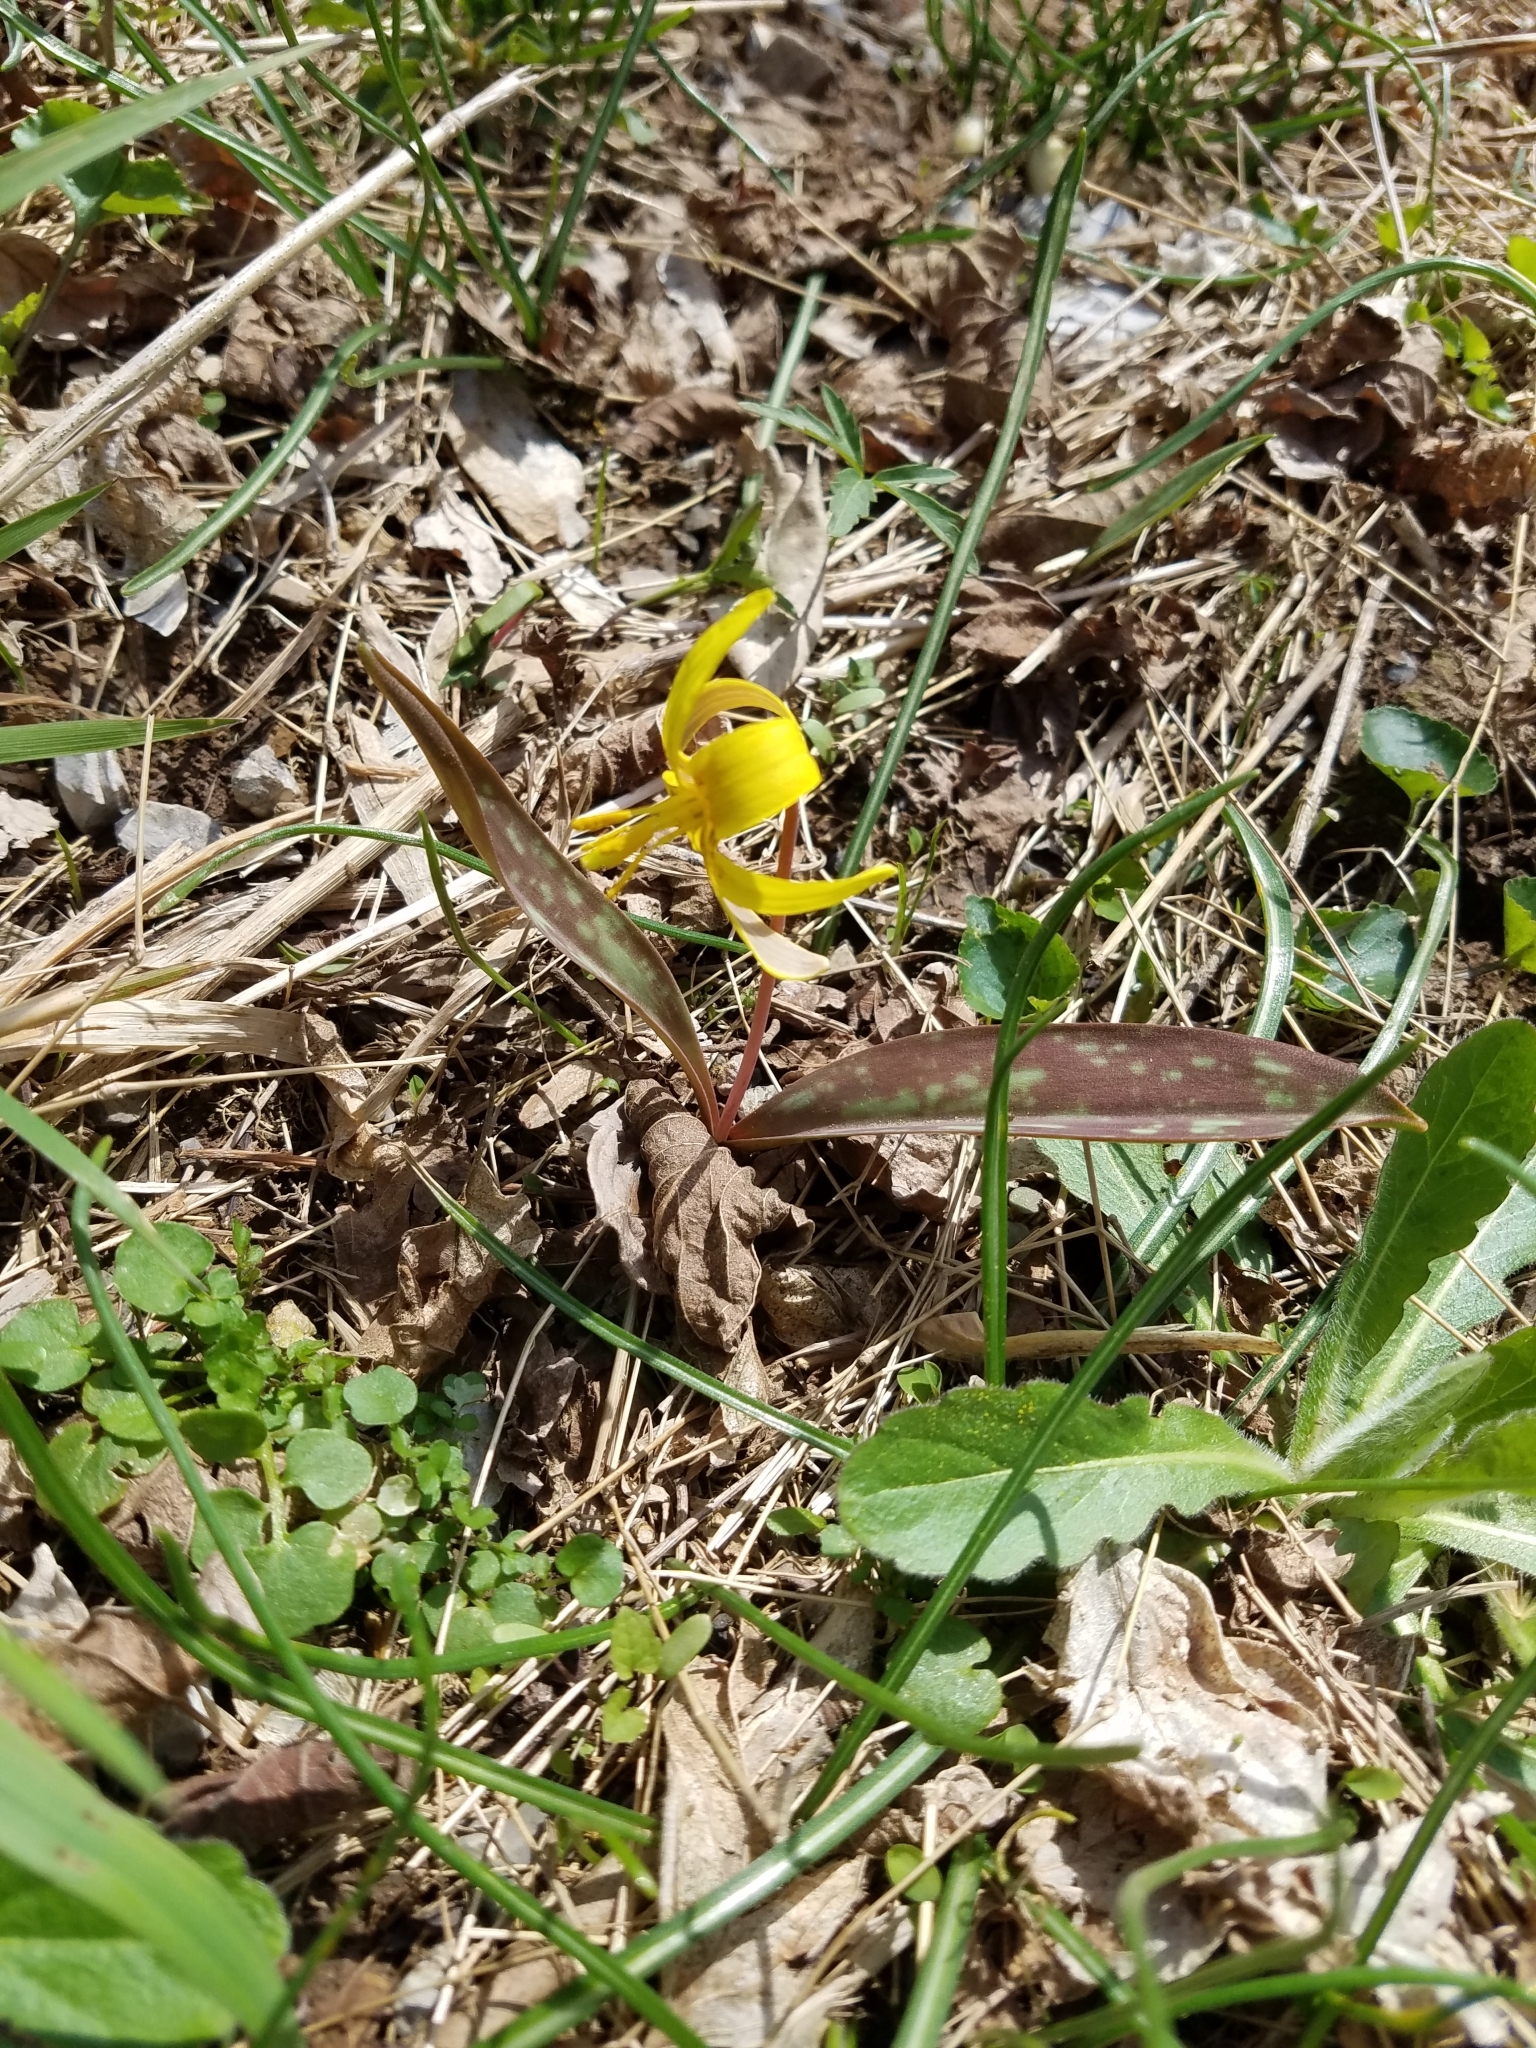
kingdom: Plantae
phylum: Tracheophyta
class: Liliopsida
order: Liliales
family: Liliaceae
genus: Erythronium
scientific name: Erythronium americanum
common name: Yellow adder's-tongue
